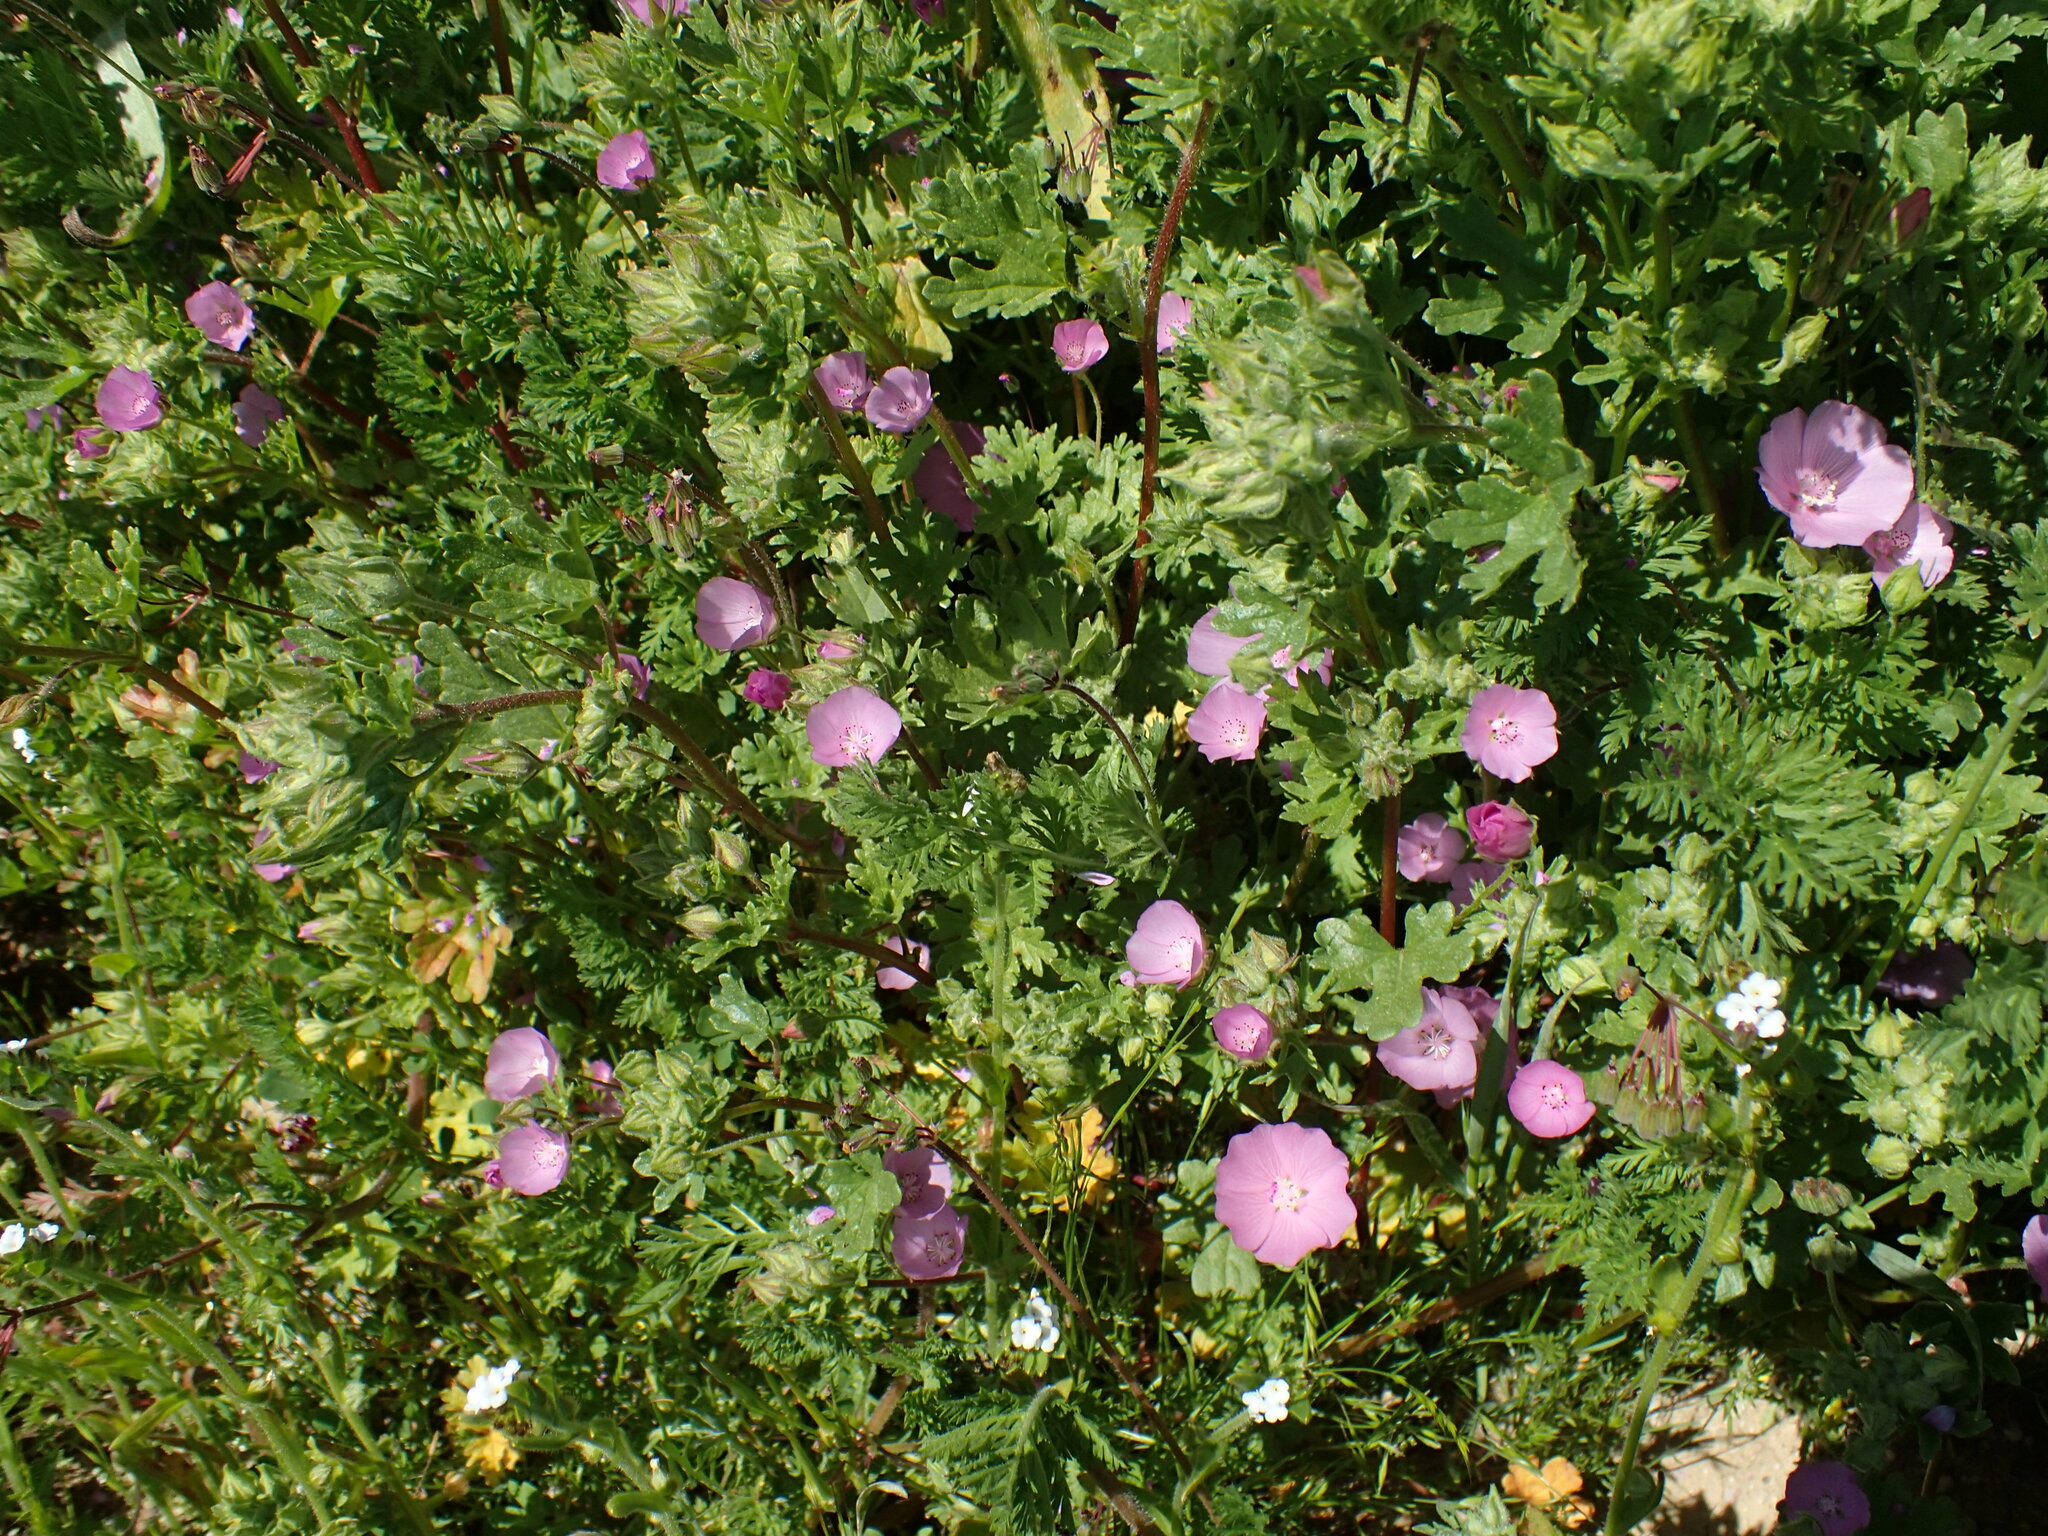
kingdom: Plantae
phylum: Tracheophyta
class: Magnoliopsida
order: Malvales
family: Malvaceae
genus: Eremalche
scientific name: Eremalche parryi
